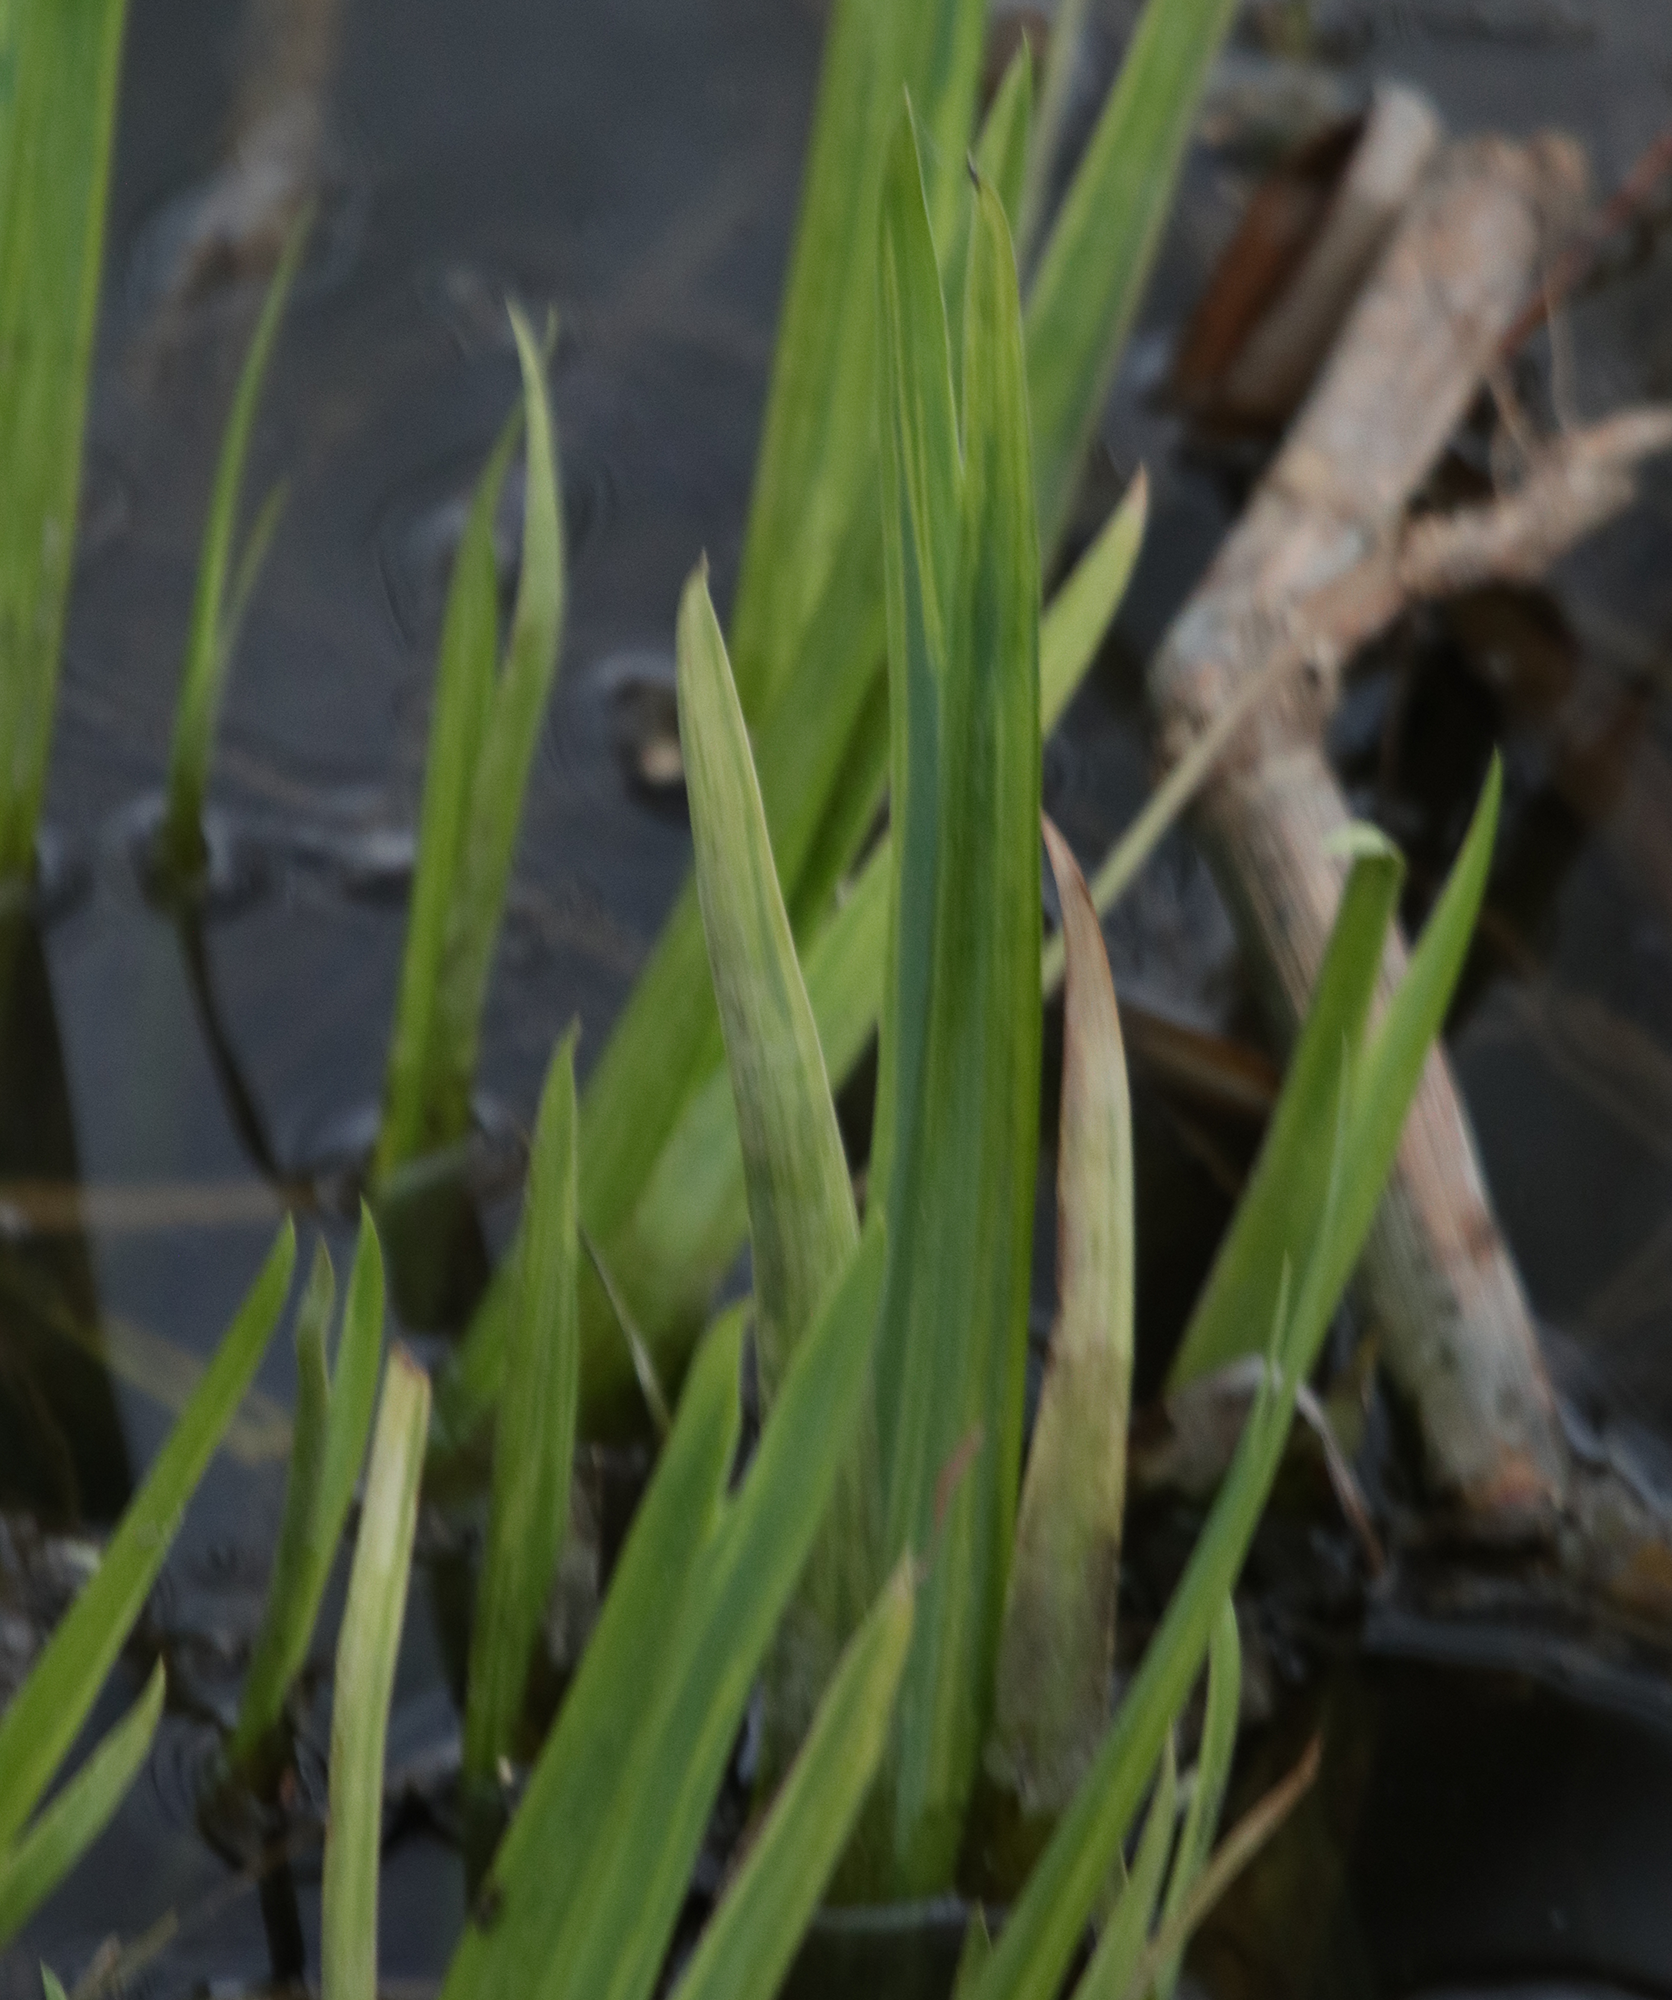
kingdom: Plantae
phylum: Tracheophyta
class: Liliopsida
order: Asparagales
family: Iridaceae
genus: Iris
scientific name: Iris pseudacorus
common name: Yellow flag
